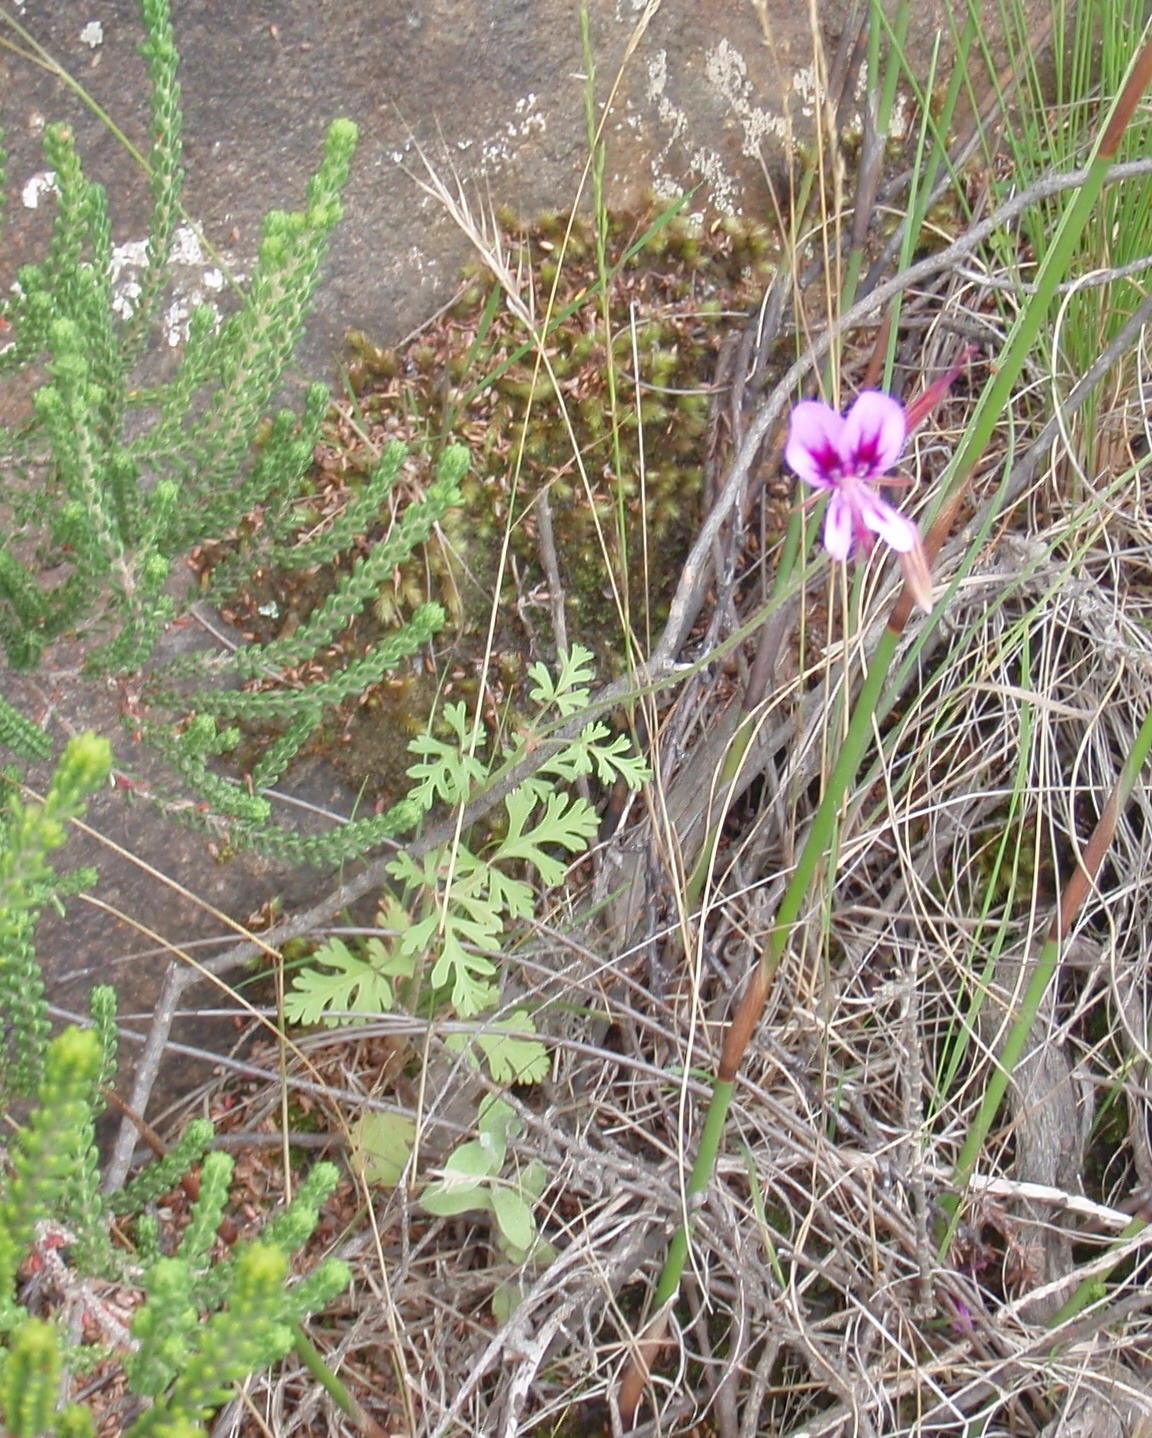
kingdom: Plantae
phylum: Tracheophyta
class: Magnoliopsida
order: Geraniales
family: Geraniaceae
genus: Pelargonium
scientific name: Pelargonium multicaule
